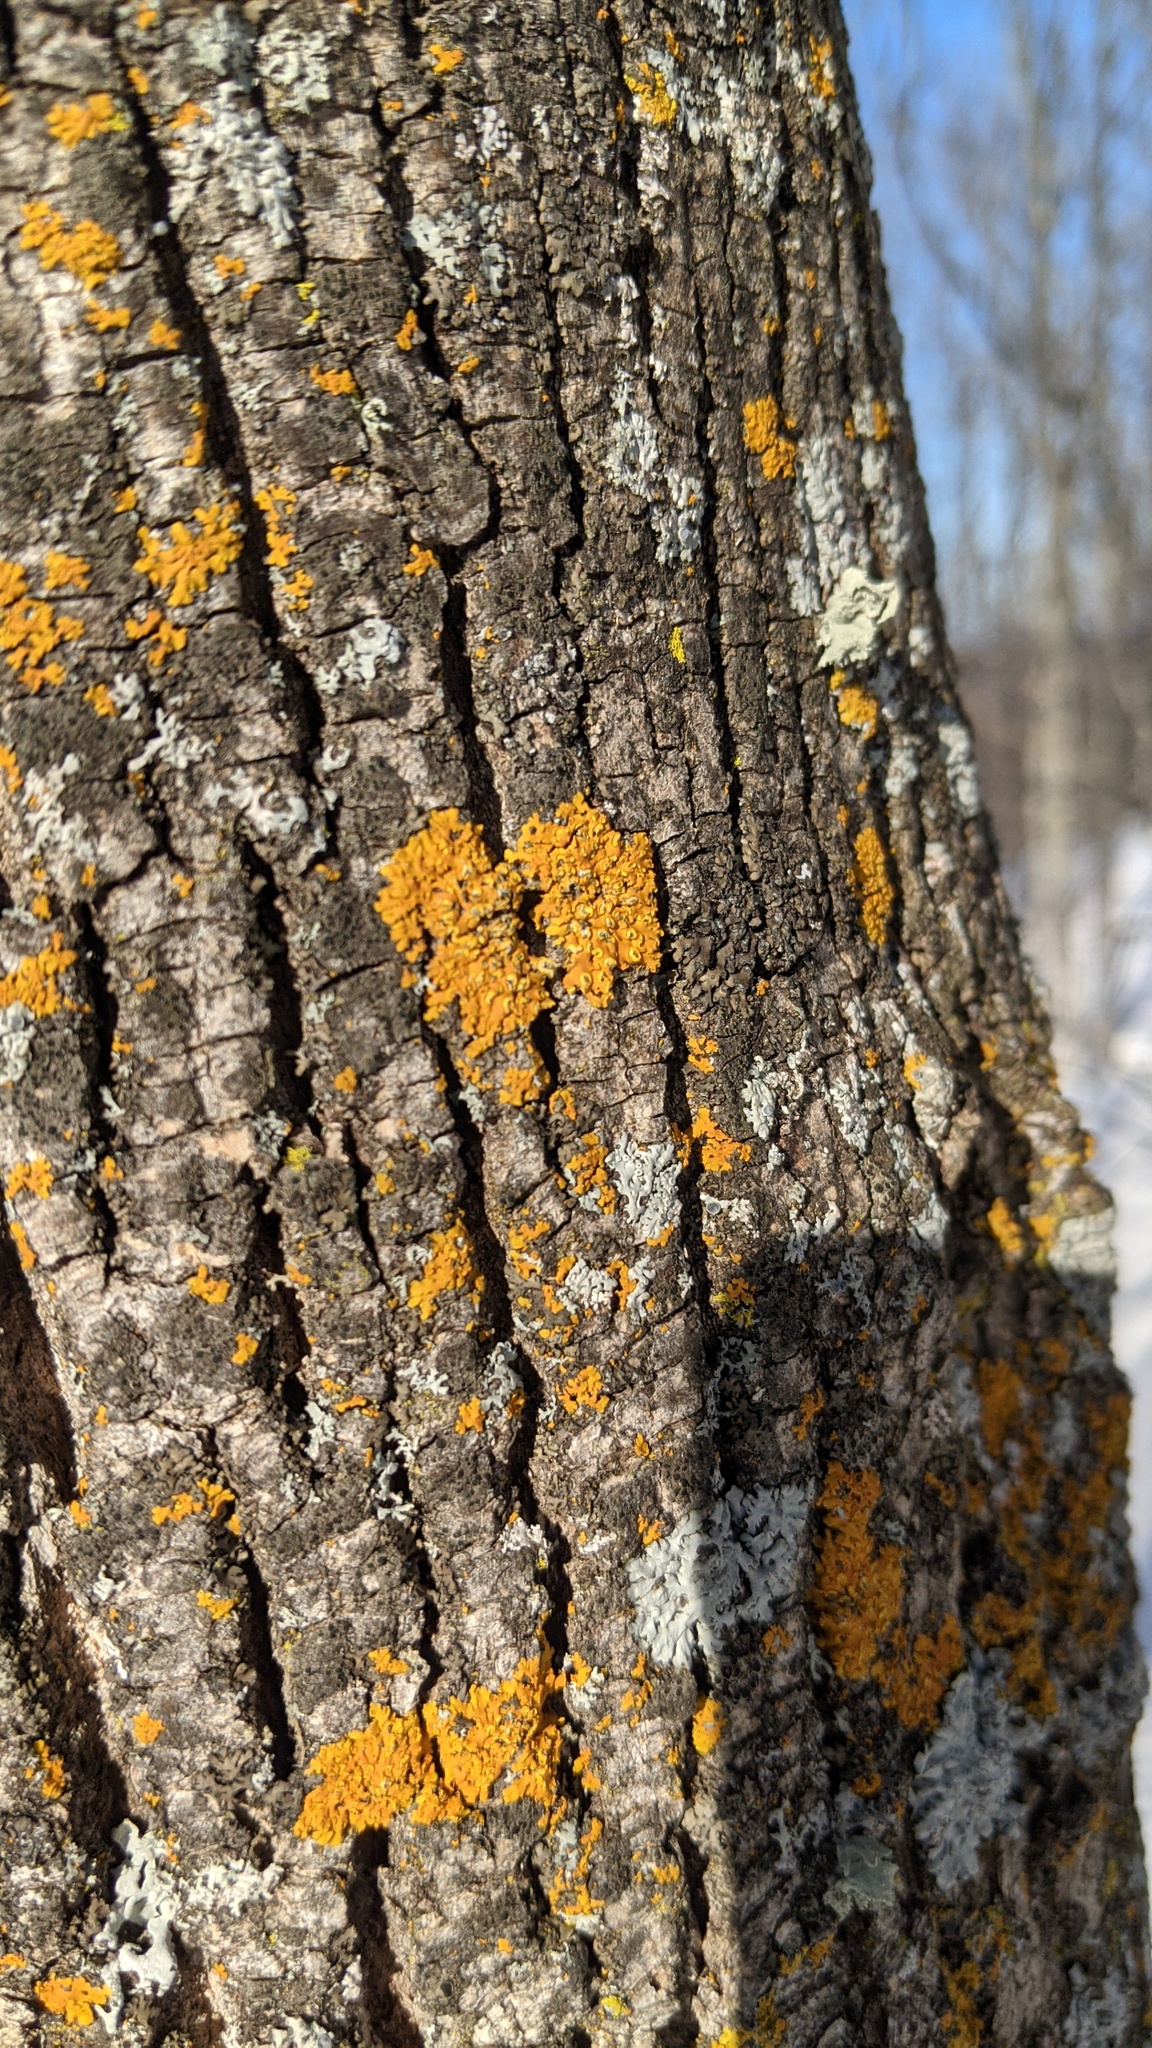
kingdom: Fungi
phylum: Ascomycota
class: Lecanoromycetes
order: Teloschistales
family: Teloschistaceae
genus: Oxneria
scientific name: Oxneria fallax
